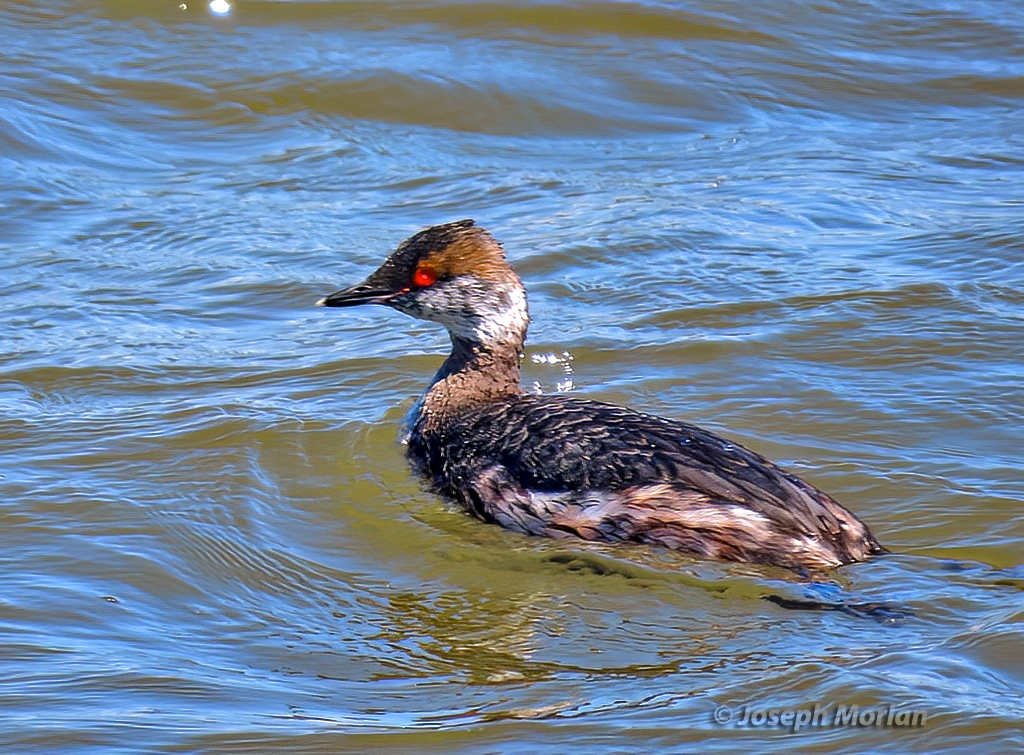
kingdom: Animalia
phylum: Chordata
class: Aves
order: Podicipediformes
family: Podicipedidae
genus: Podiceps
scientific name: Podiceps auritus
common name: Horned grebe
